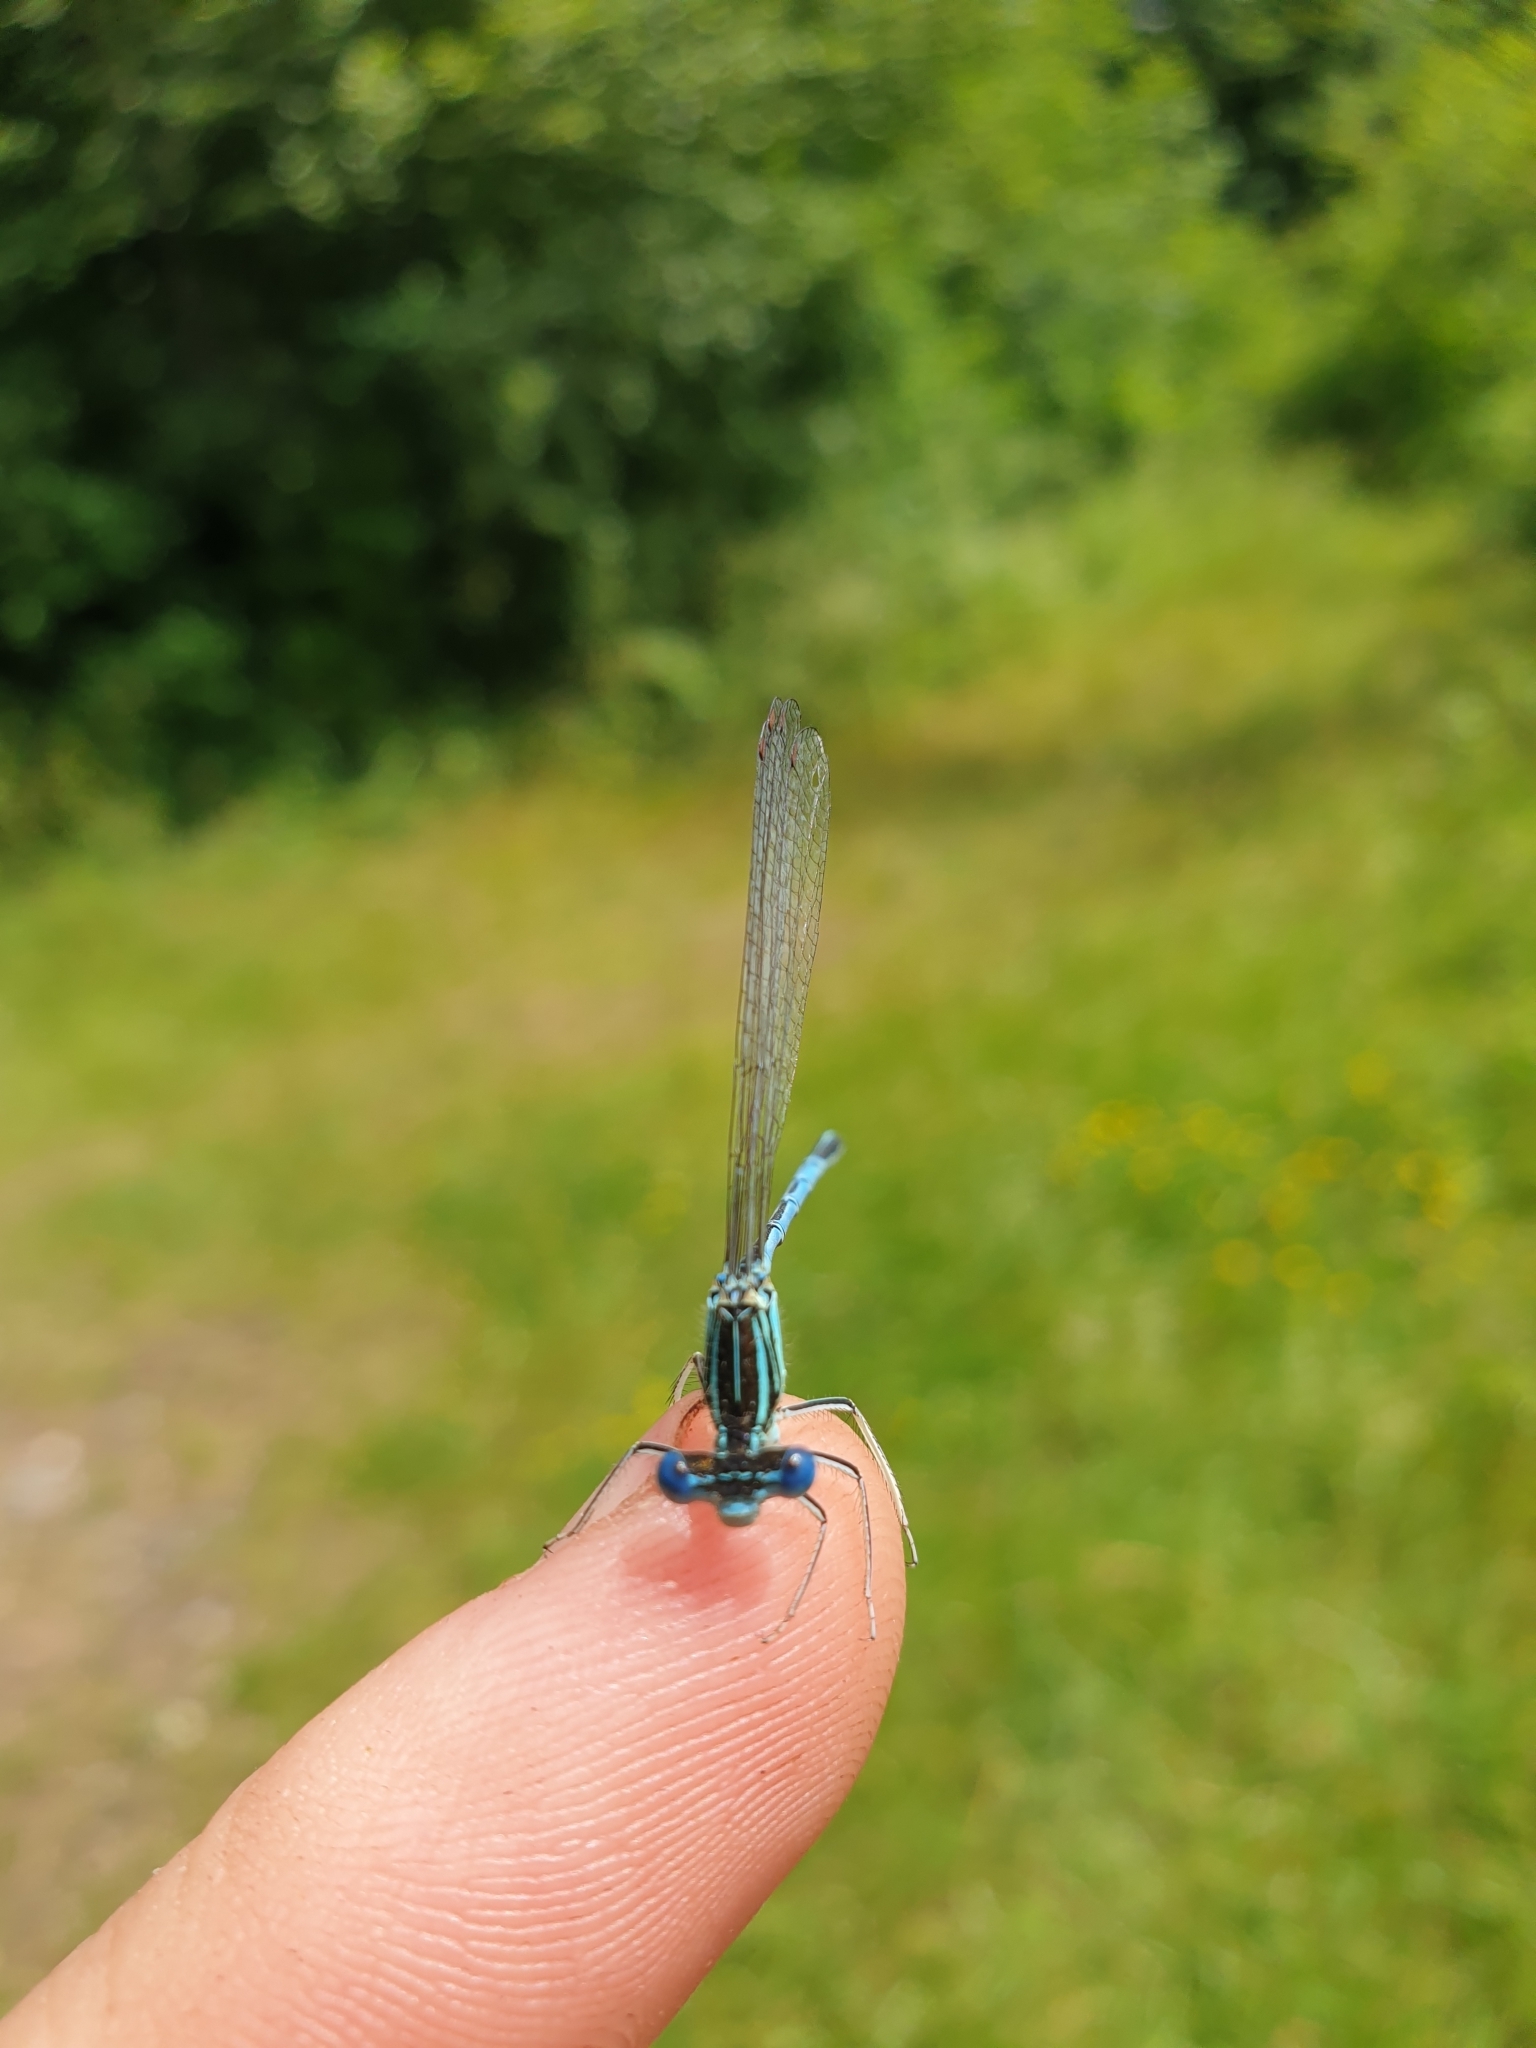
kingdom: Animalia
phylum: Arthropoda
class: Insecta
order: Odonata
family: Platycnemididae
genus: Platycnemis
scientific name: Platycnemis pennipes
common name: White-legged damselfly
